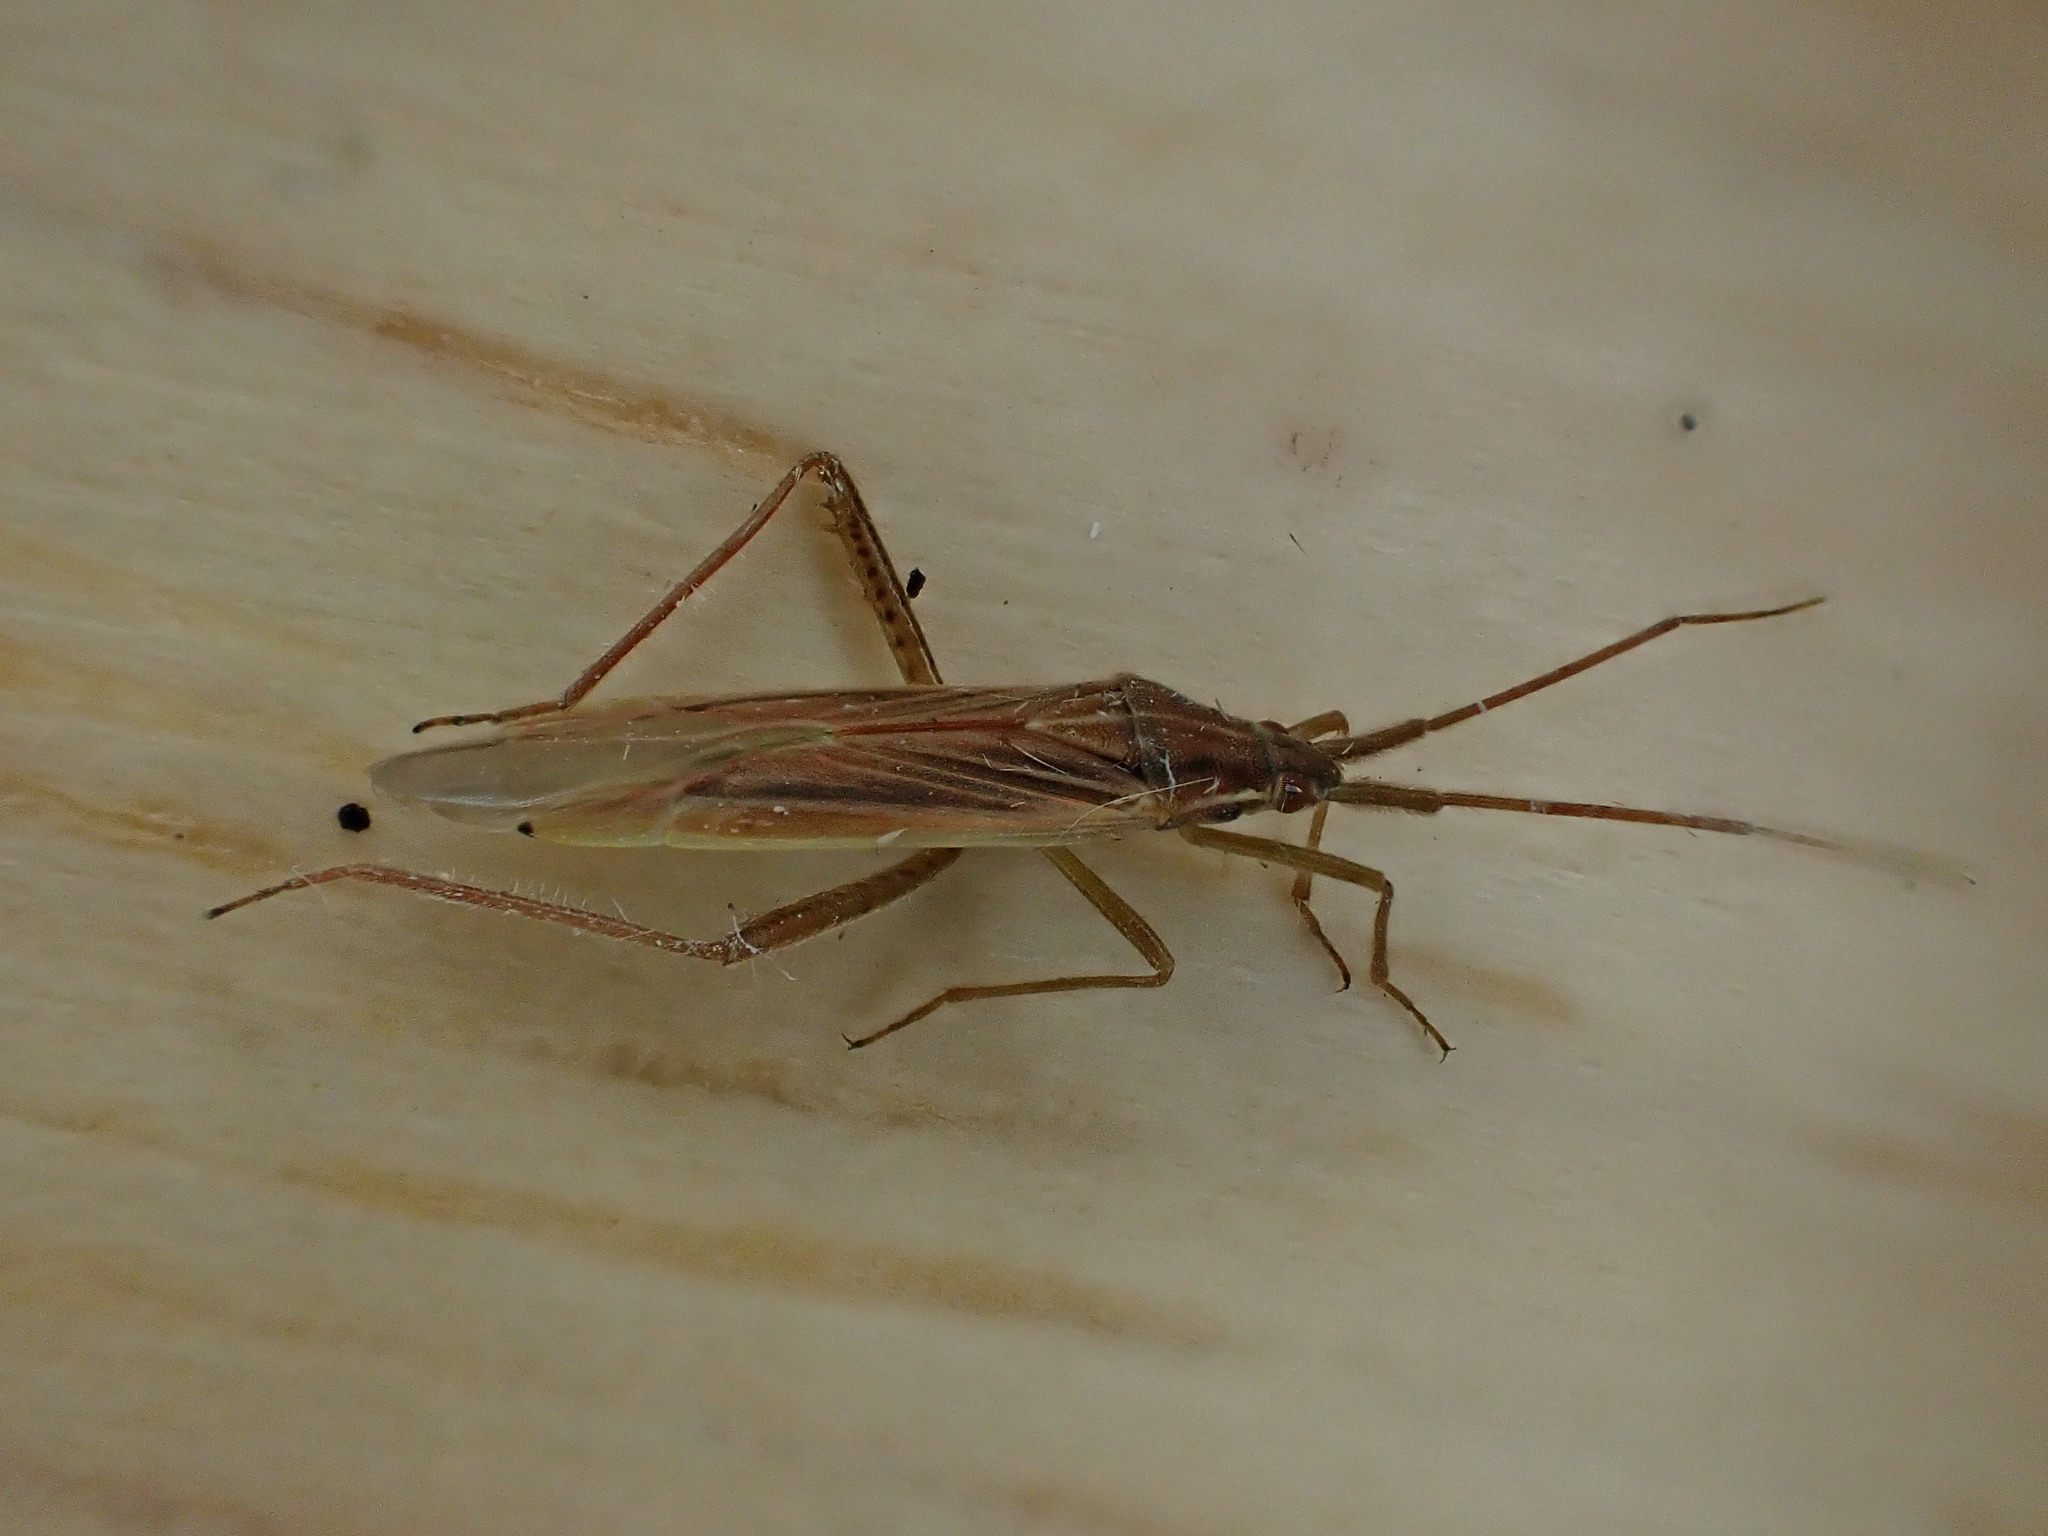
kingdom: Animalia
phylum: Arthropoda
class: Insecta
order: Hemiptera
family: Miridae
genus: Stenodema
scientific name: Stenodema calcarata
